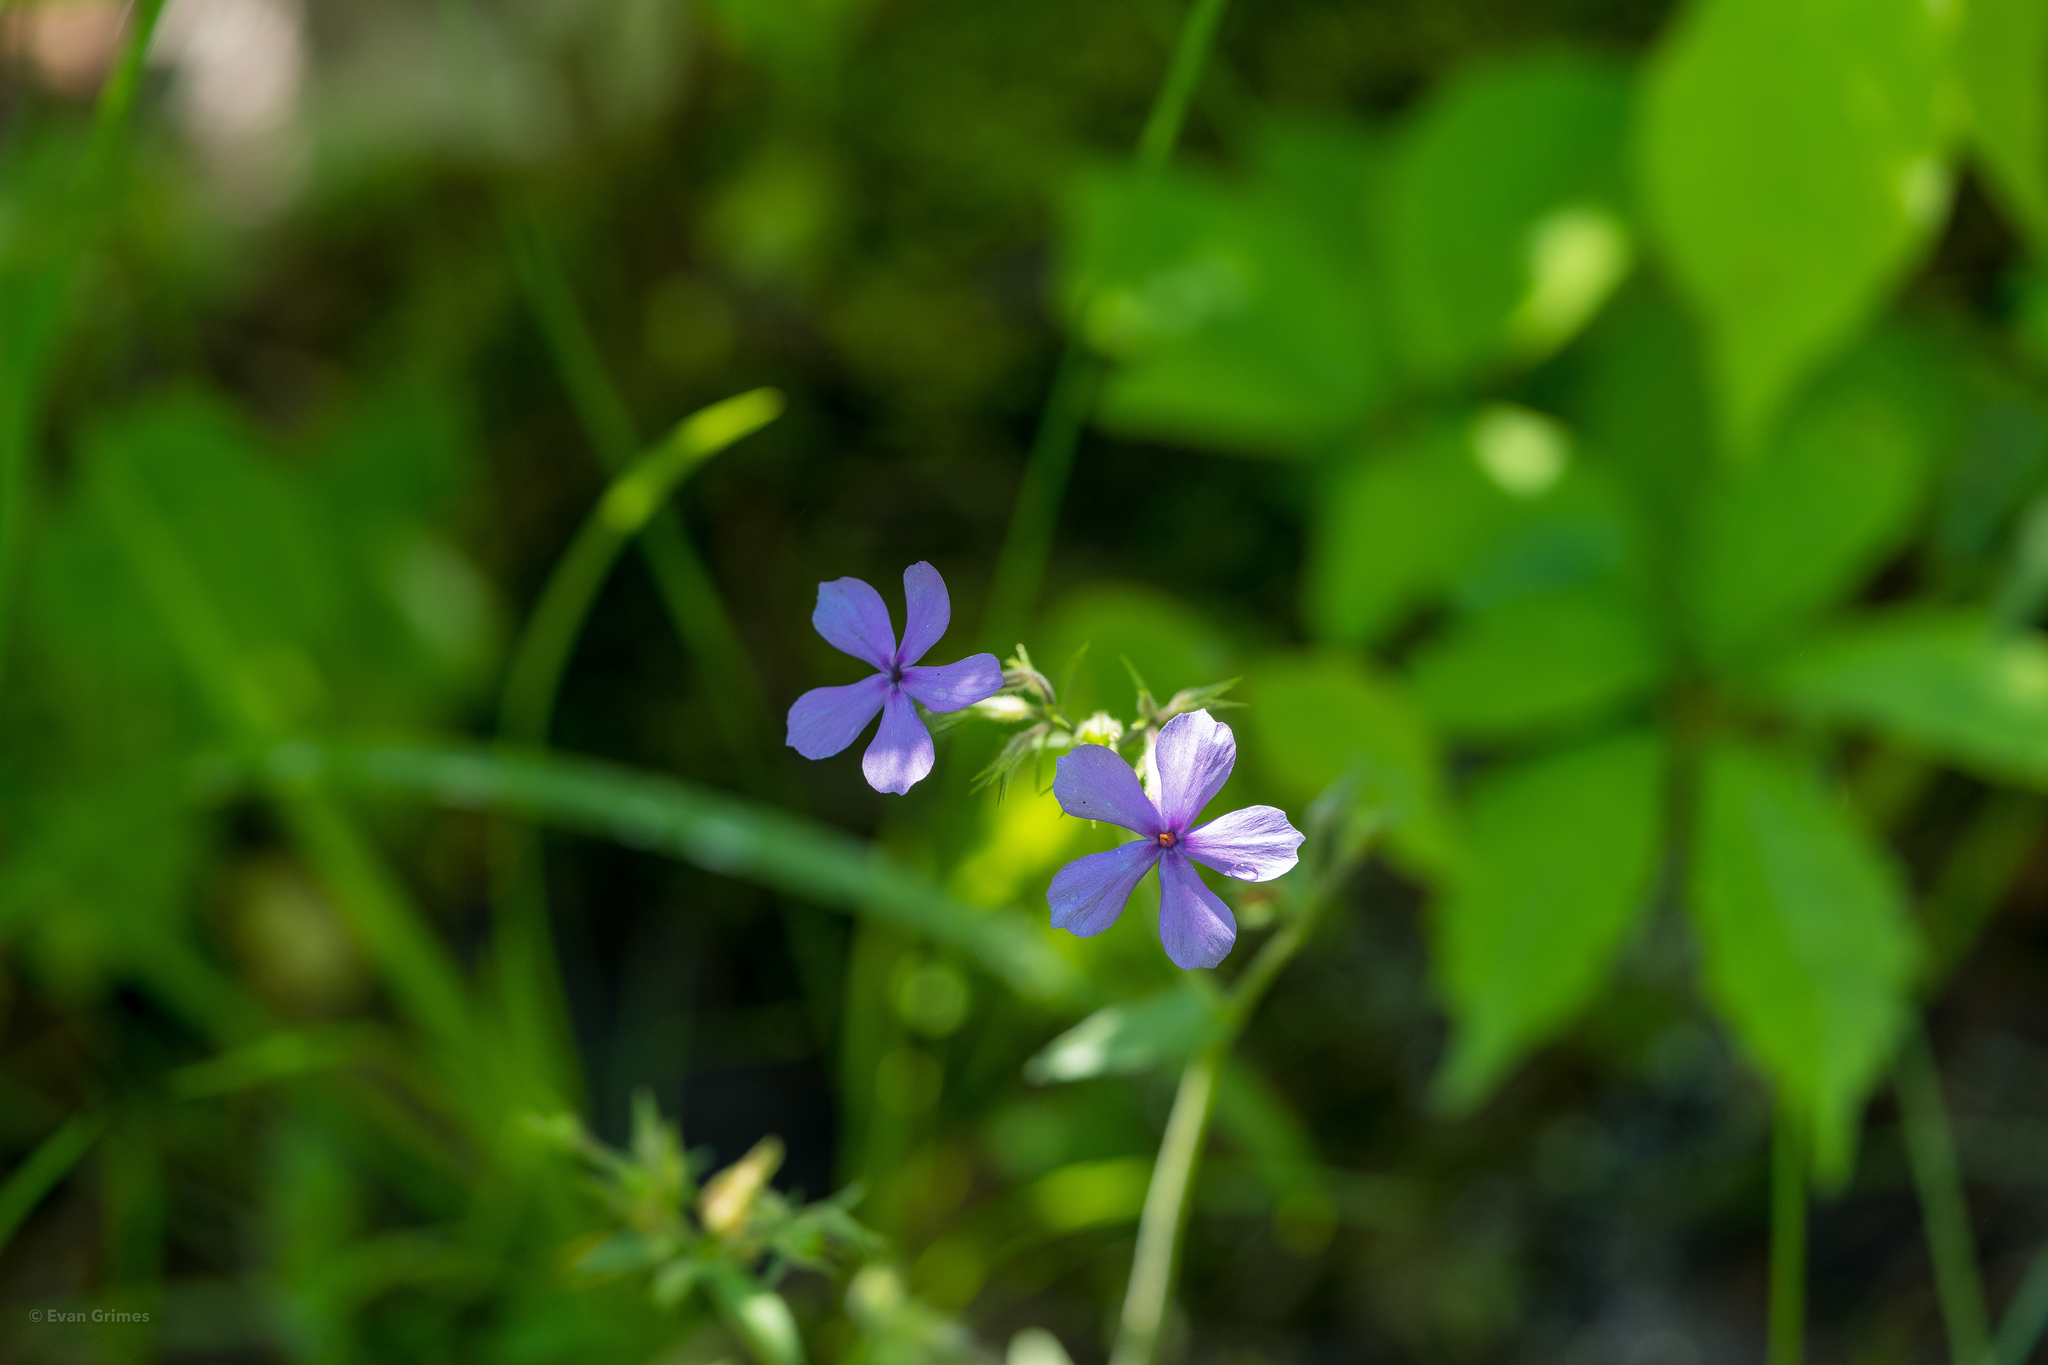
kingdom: Plantae
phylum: Tracheophyta
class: Magnoliopsida
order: Ericales
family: Polemoniaceae
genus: Phlox
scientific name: Phlox divaricata
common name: Blue phlox
